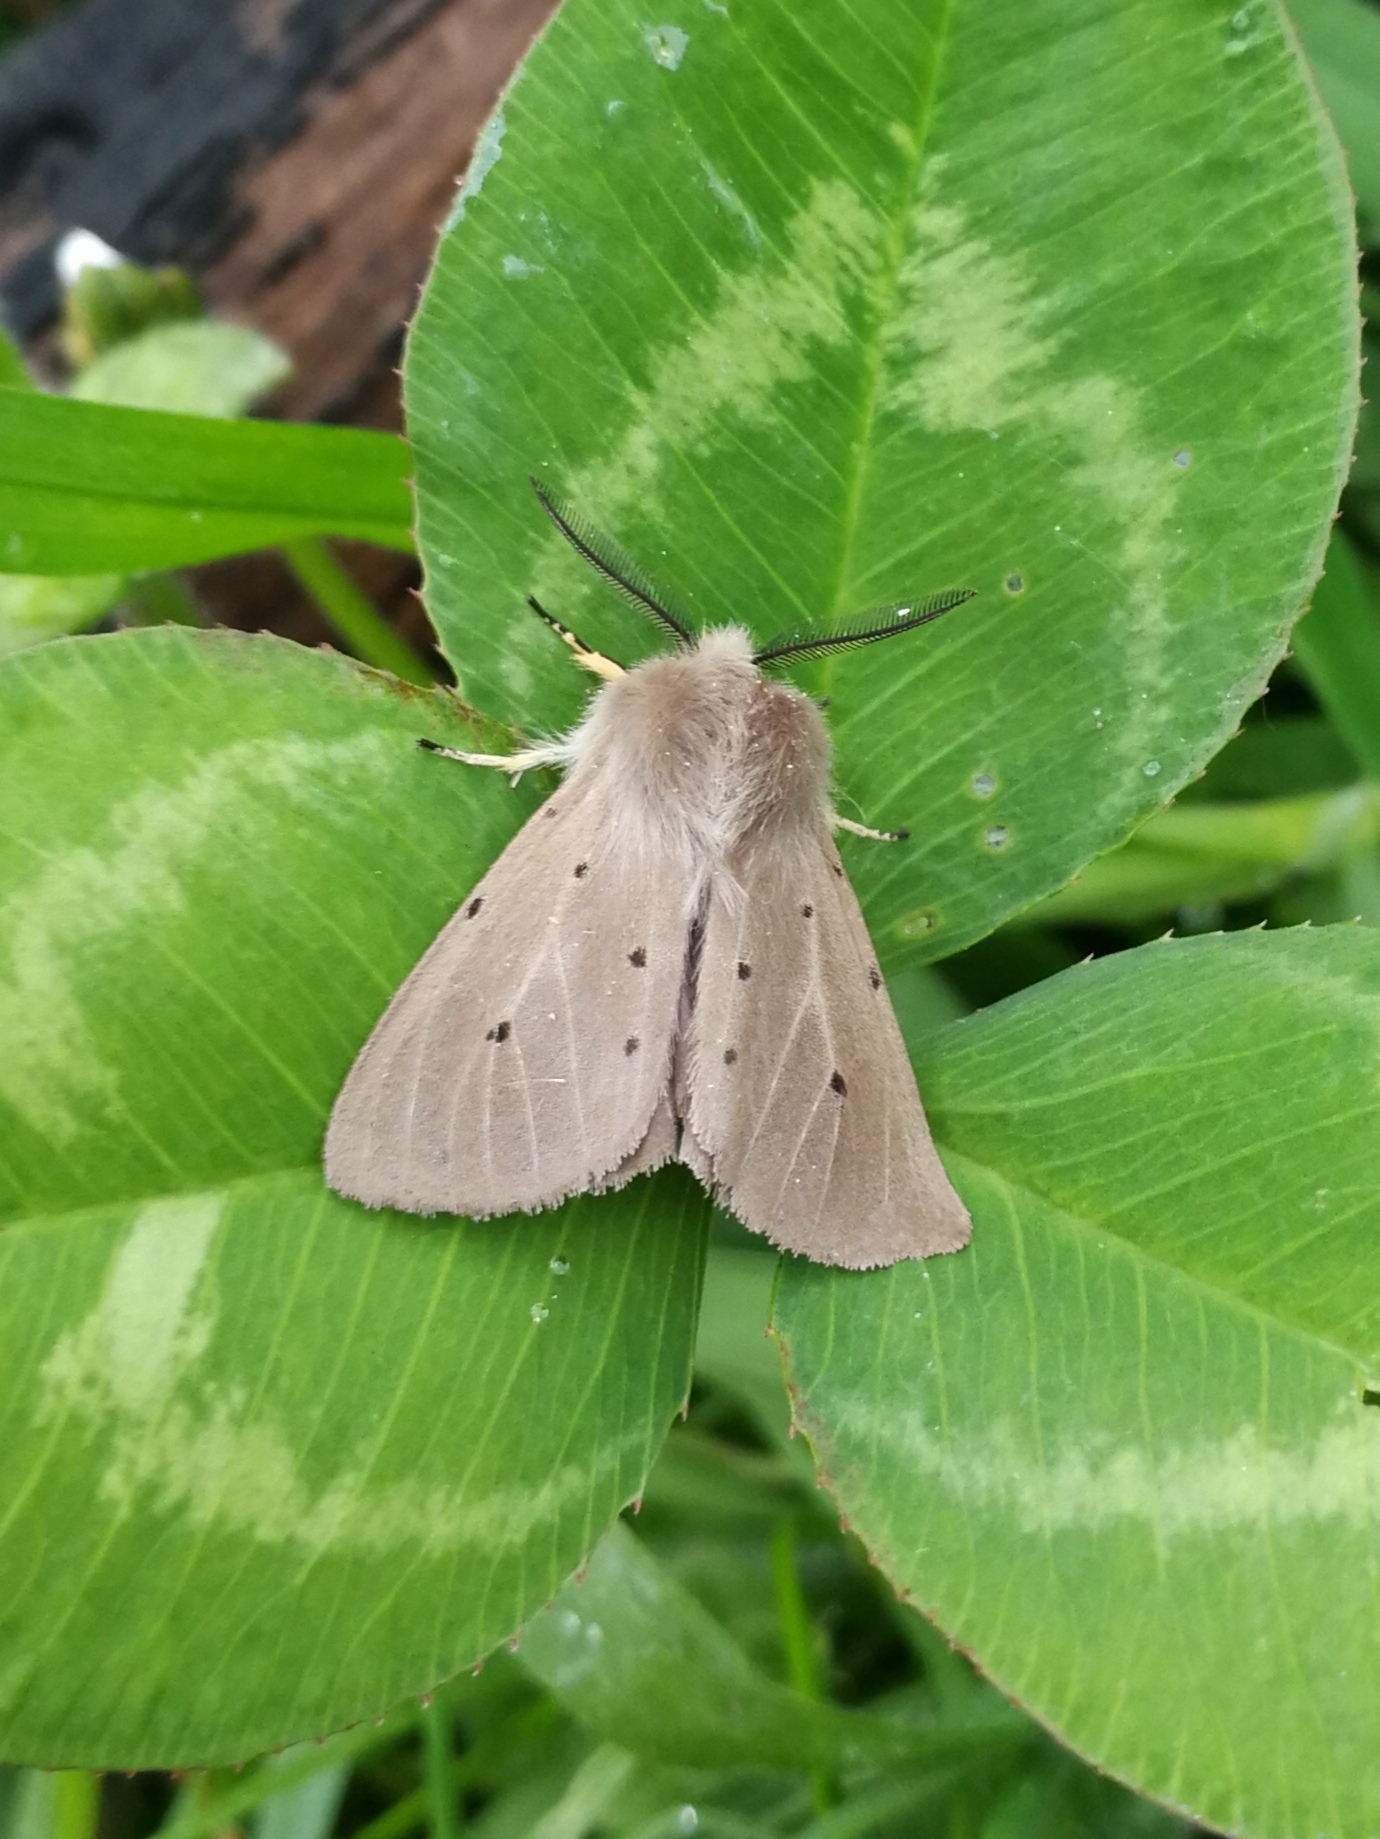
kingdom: Animalia
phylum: Arthropoda
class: Insecta
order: Lepidoptera
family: Erebidae
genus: Diaphora
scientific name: Diaphora mendica
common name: Muslin moth
